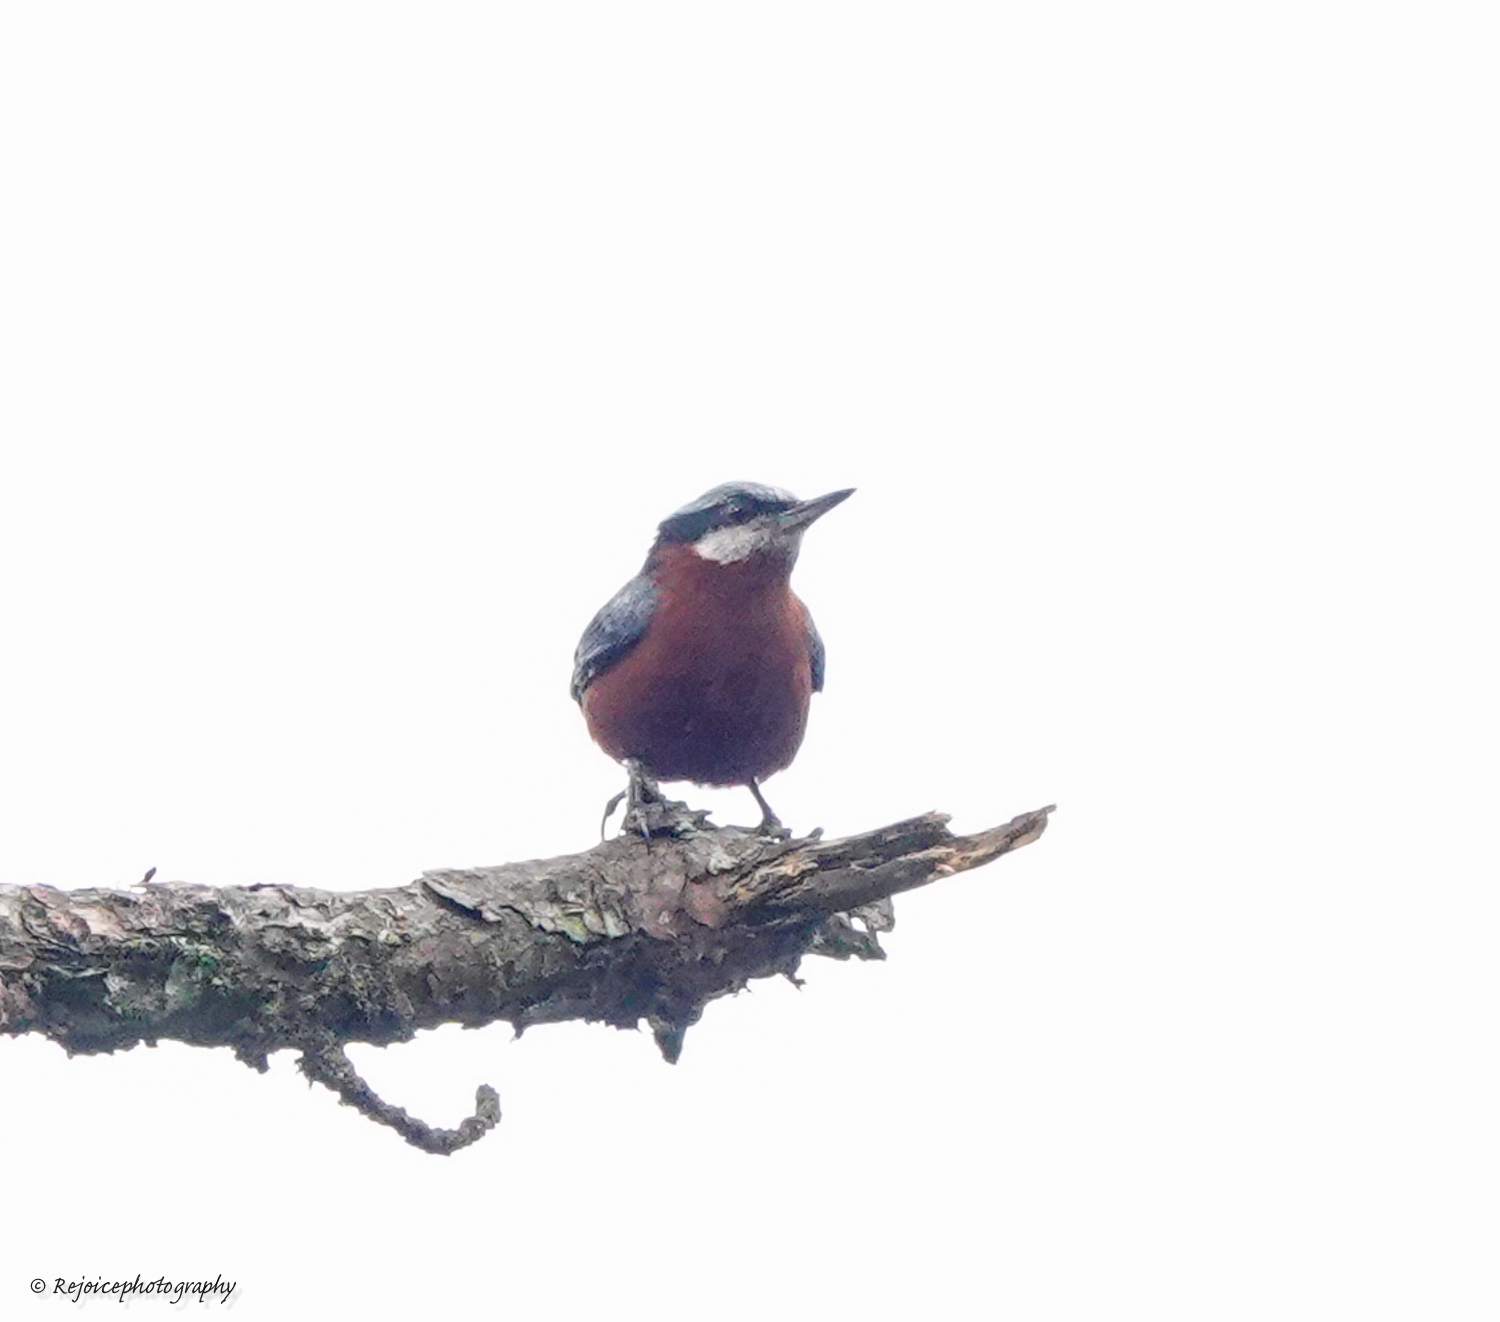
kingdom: Animalia
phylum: Chordata
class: Aves
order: Passeriformes
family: Sittidae
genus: Sitta
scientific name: Sitta cinnamoventris
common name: Chestnut-bellied nuthatch
